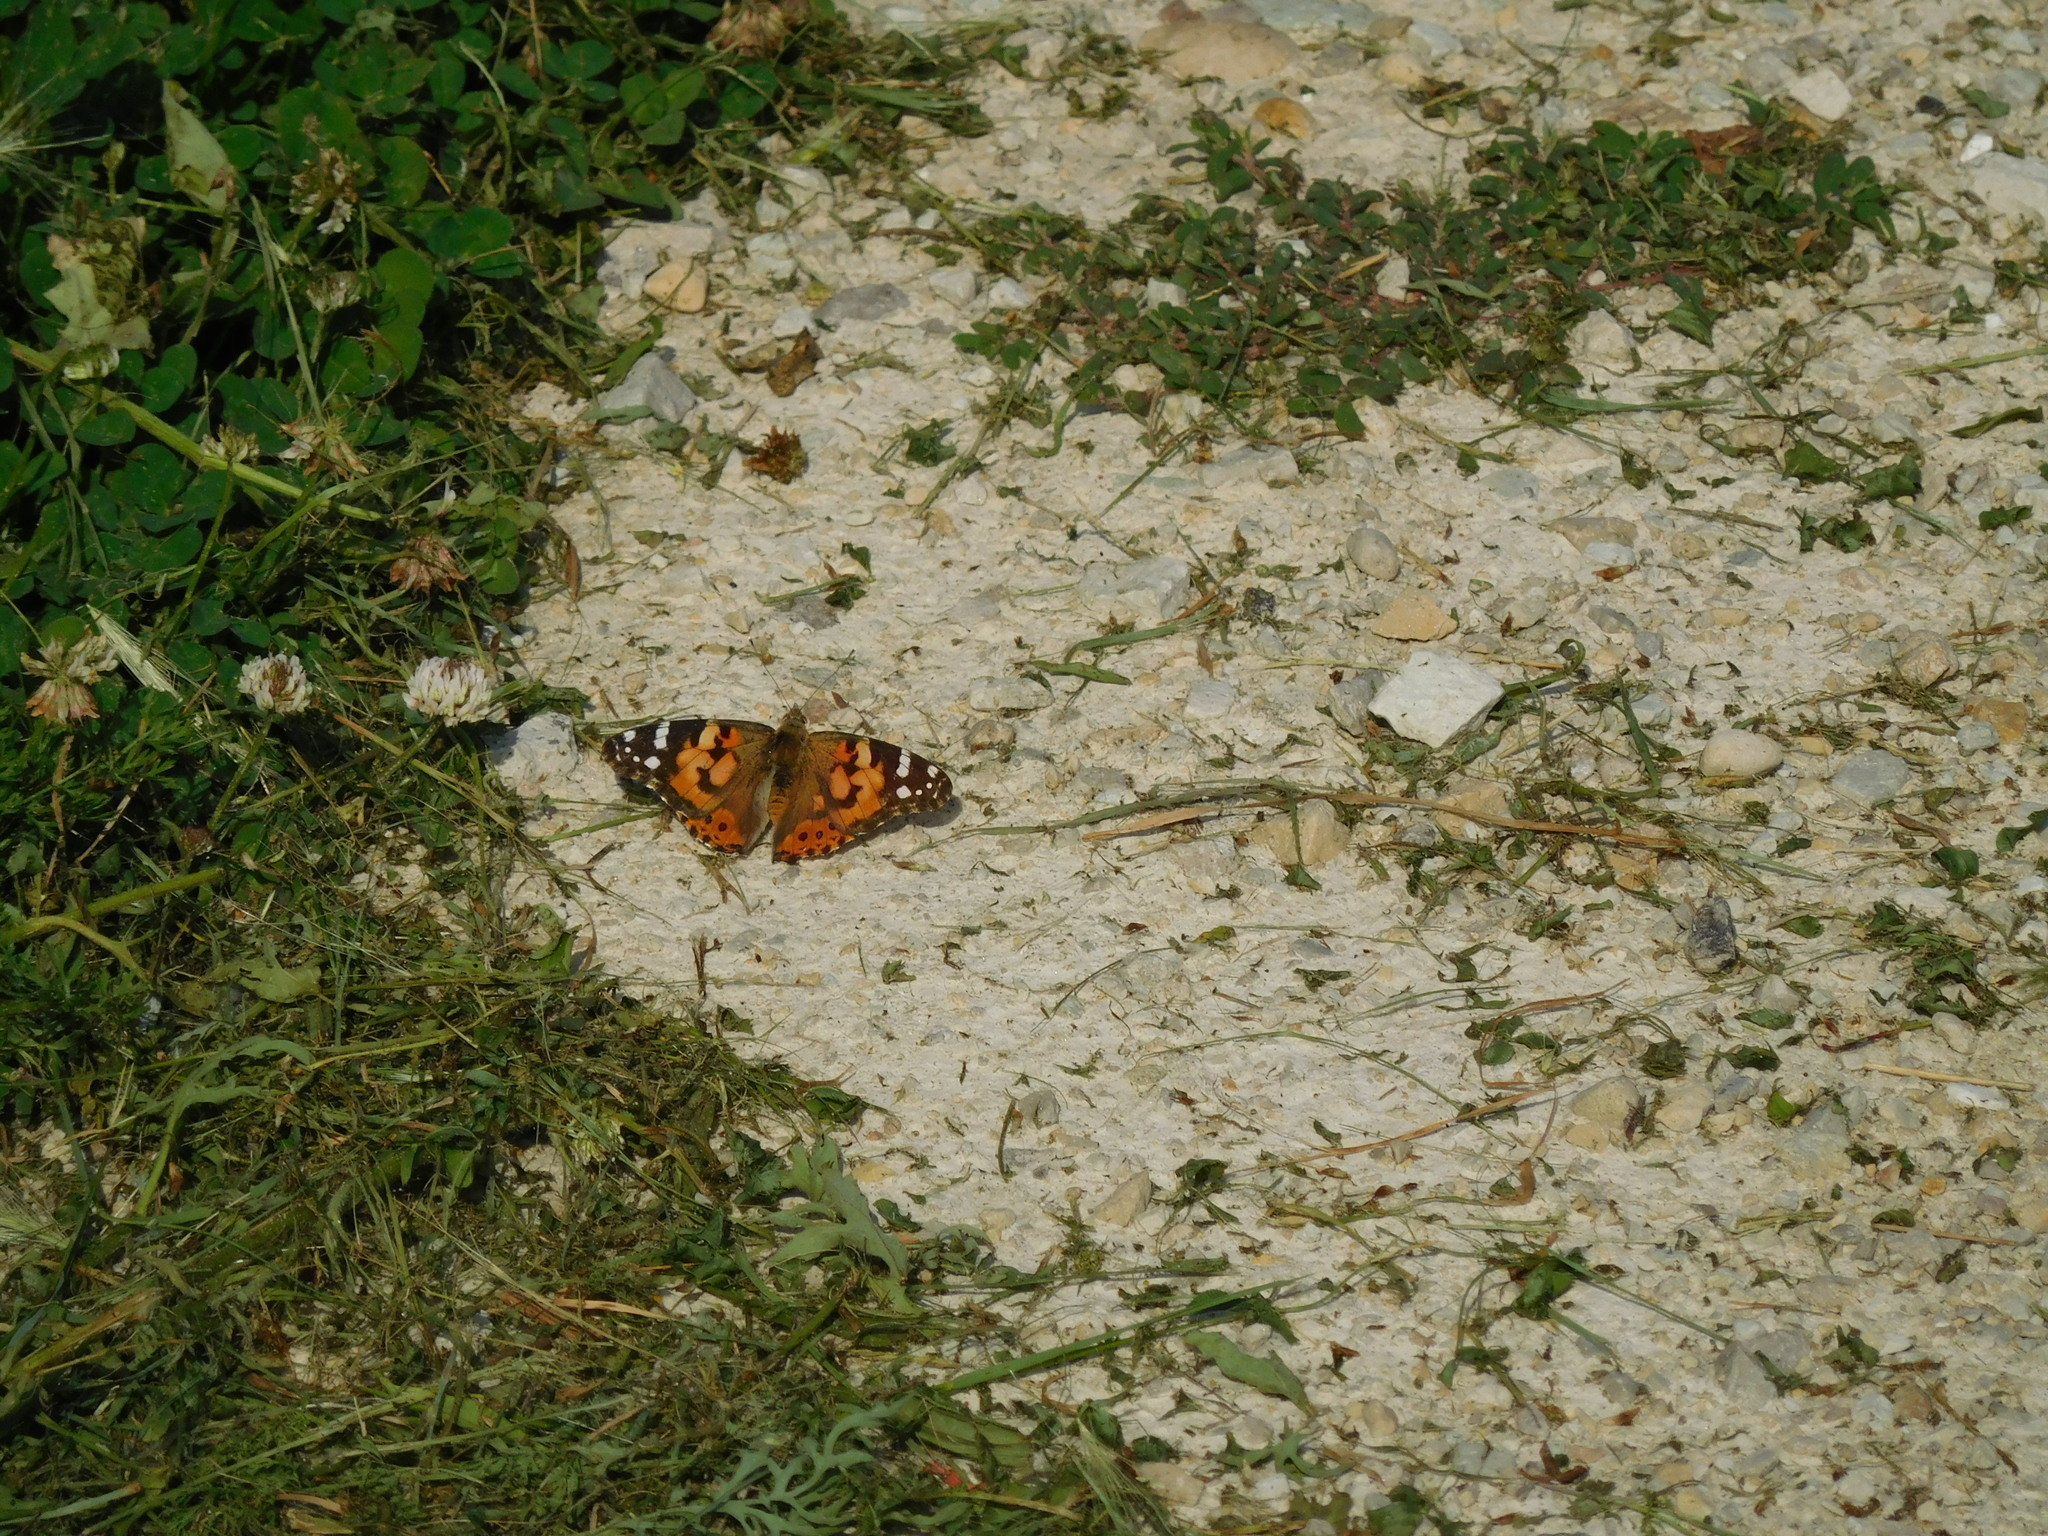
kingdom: Animalia
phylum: Arthropoda
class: Insecta
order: Lepidoptera
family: Nymphalidae
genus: Vanessa
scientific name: Vanessa cardui
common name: Painted lady
